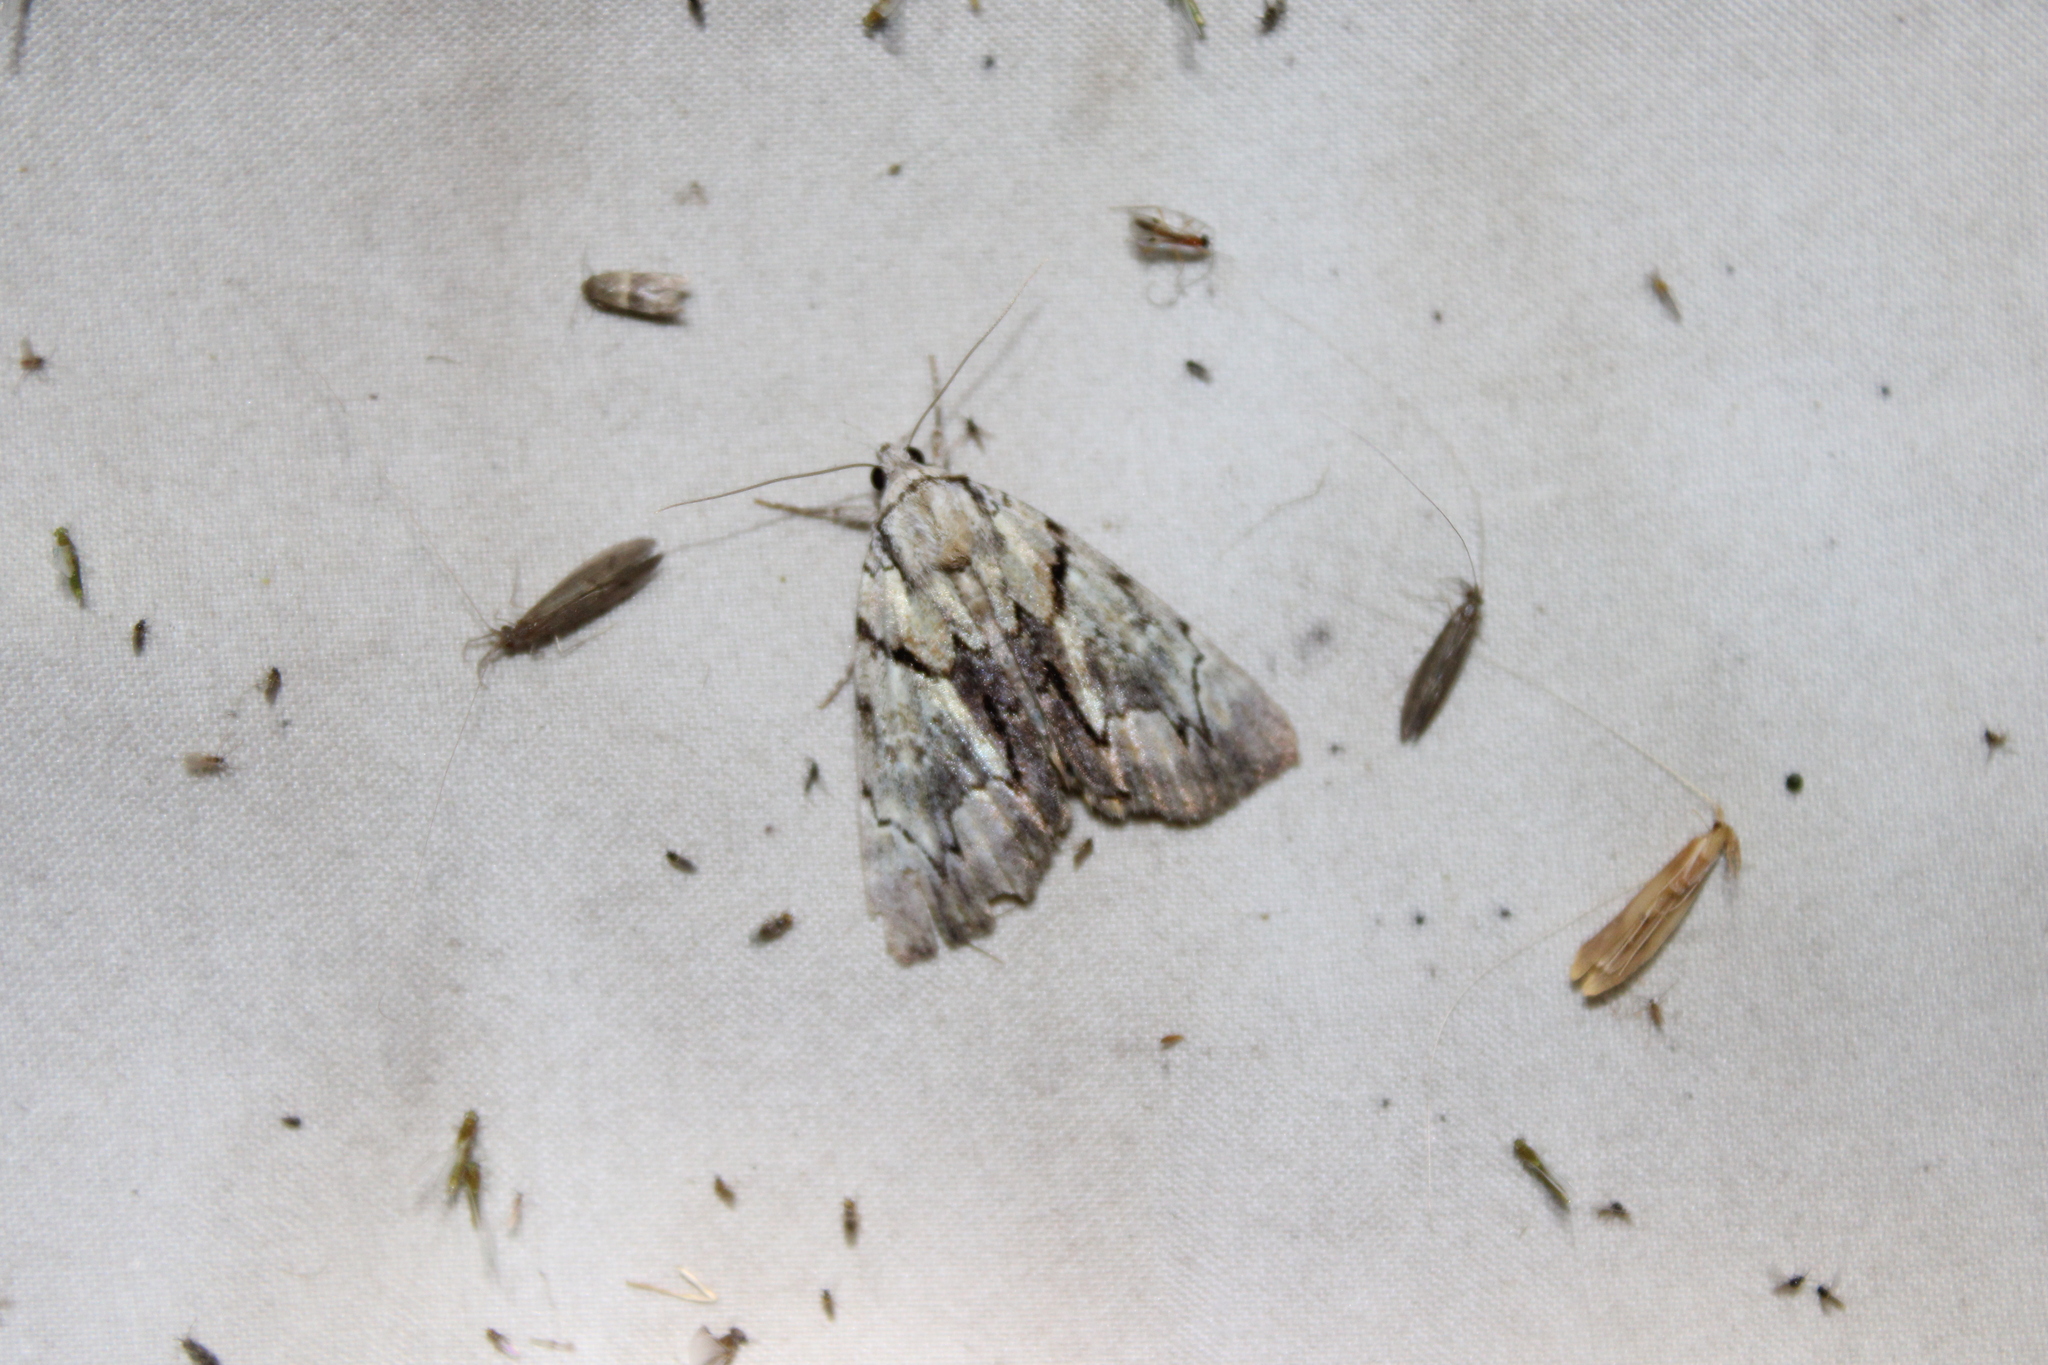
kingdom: Animalia
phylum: Arthropoda
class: Insecta
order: Lepidoptera
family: Erebidae
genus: Catocala
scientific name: Catocala blandula
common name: Charming underwing
